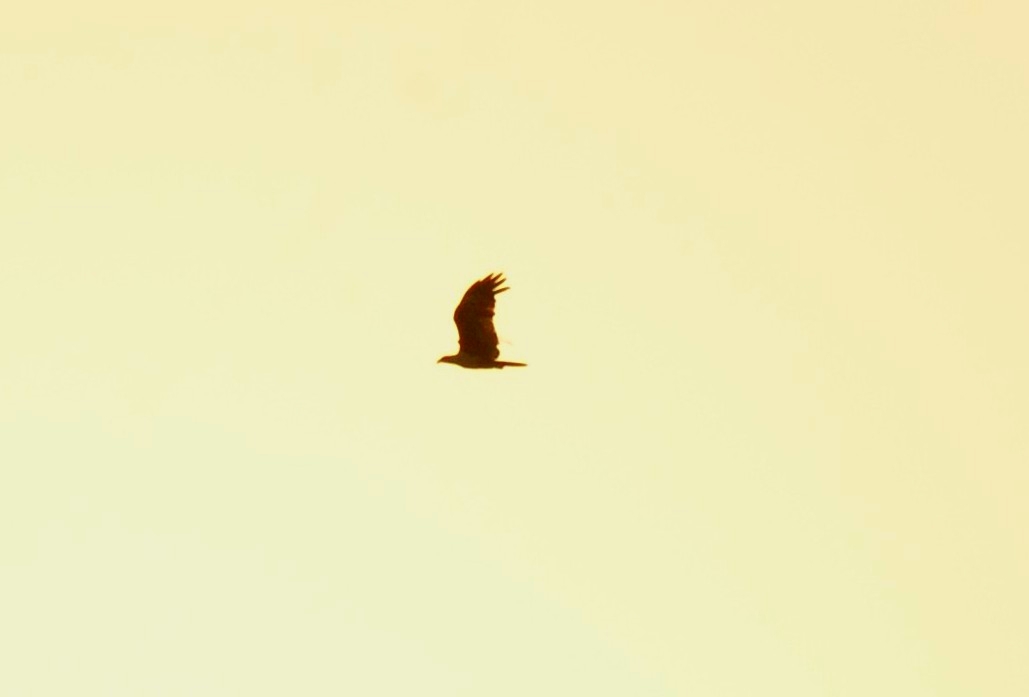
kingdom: Animalia
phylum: Chordata
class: Aves
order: Accipitriformes
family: Accipitridae
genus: Haliastur
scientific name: Haliastur indus
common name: Brahminy kite
